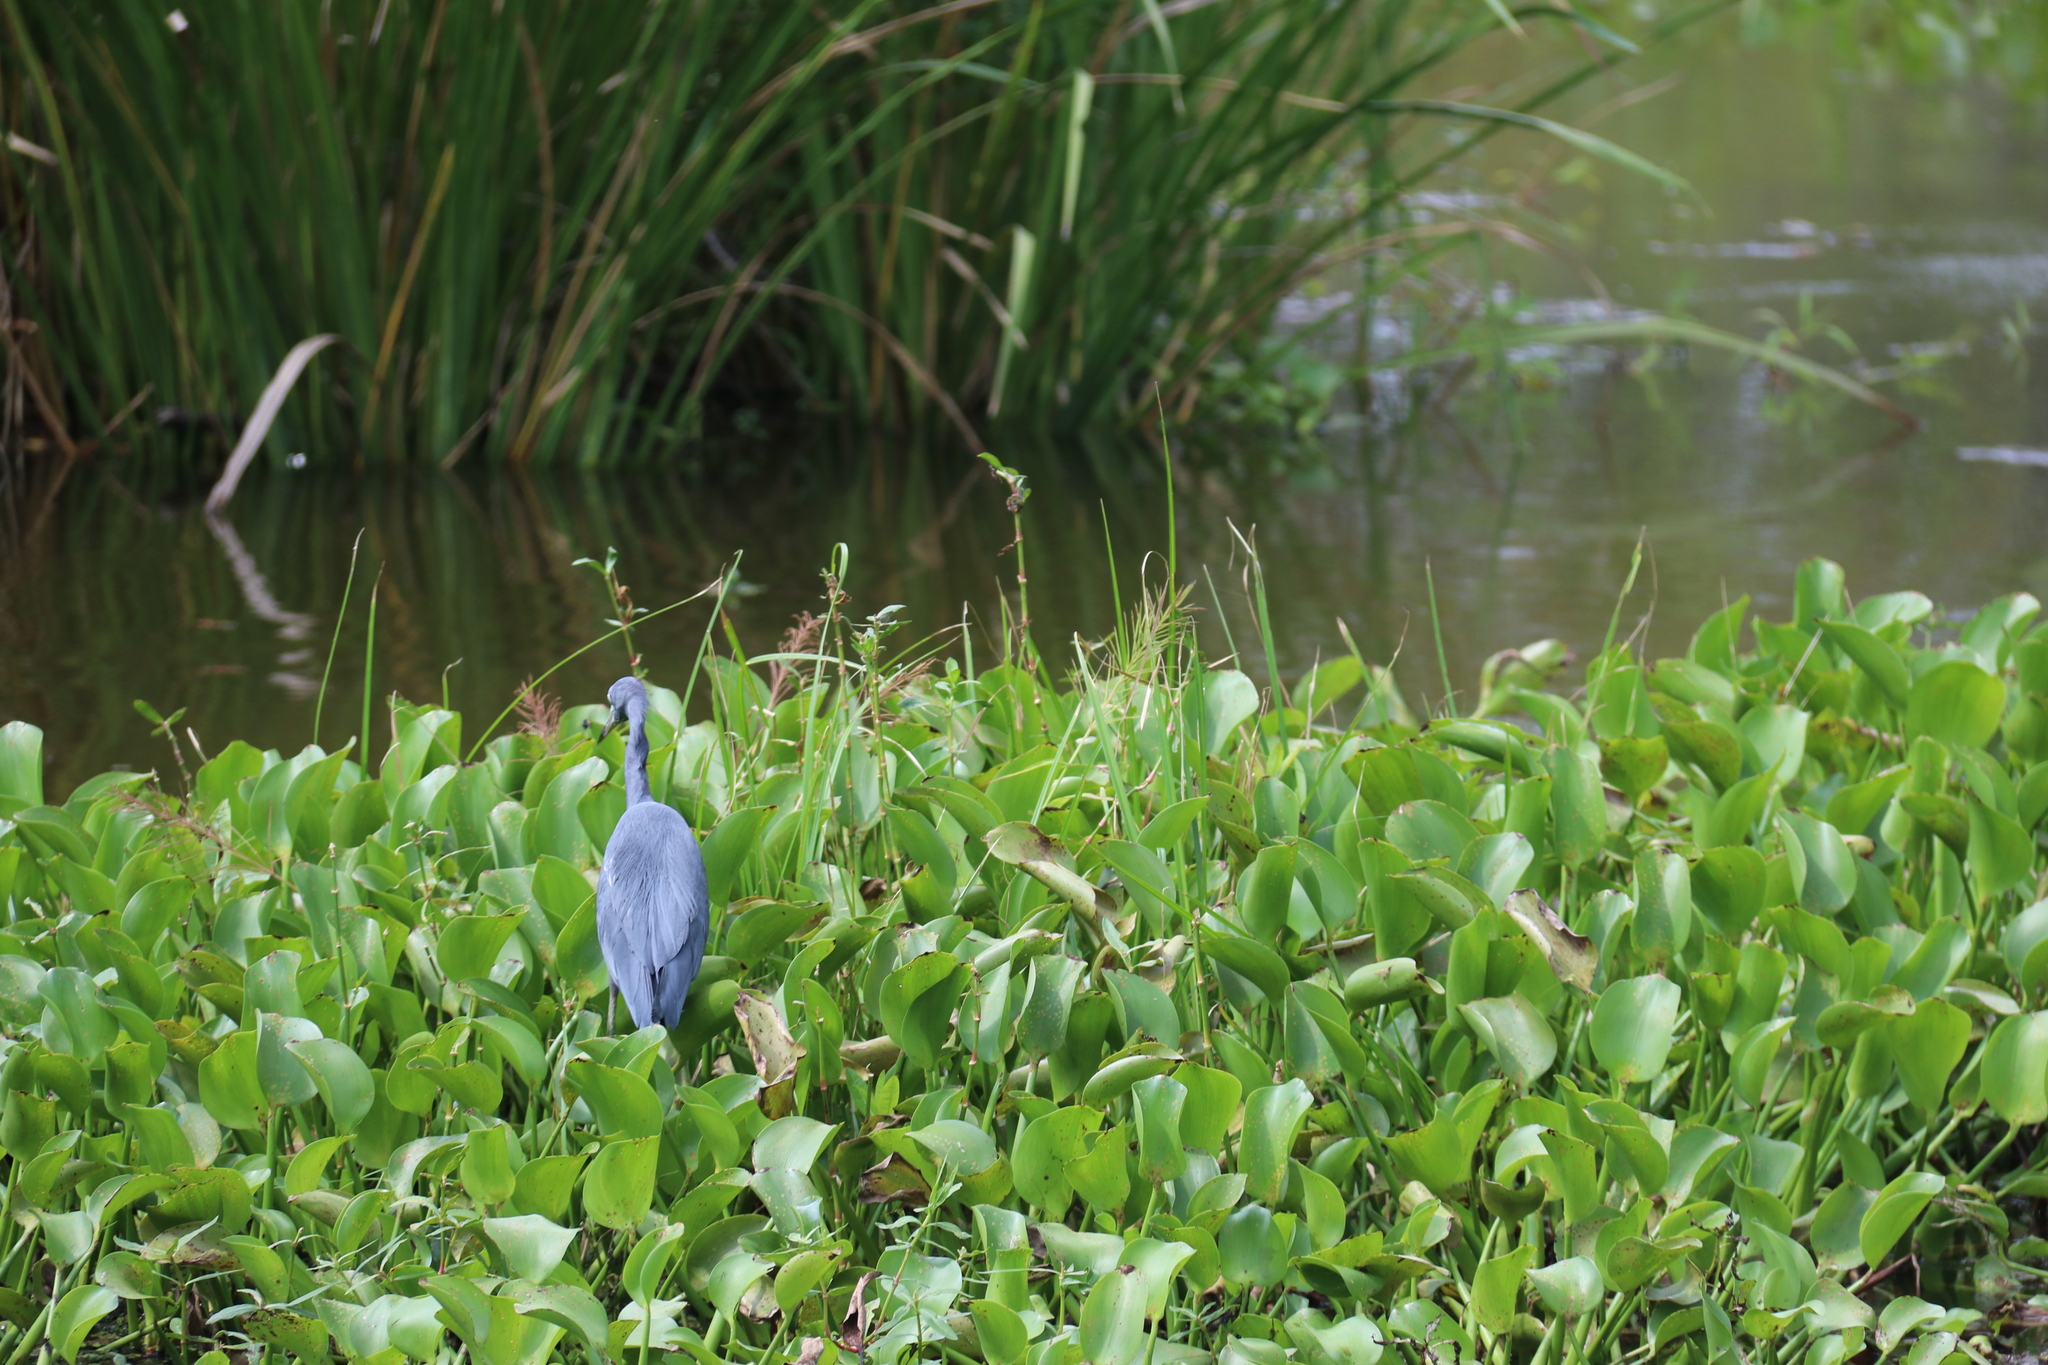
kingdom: Animalia
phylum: Chordata
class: Aves
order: Pelecaniformes
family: Ardeidae
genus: Egretta
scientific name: Egretta caerulea
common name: Little blue heron
